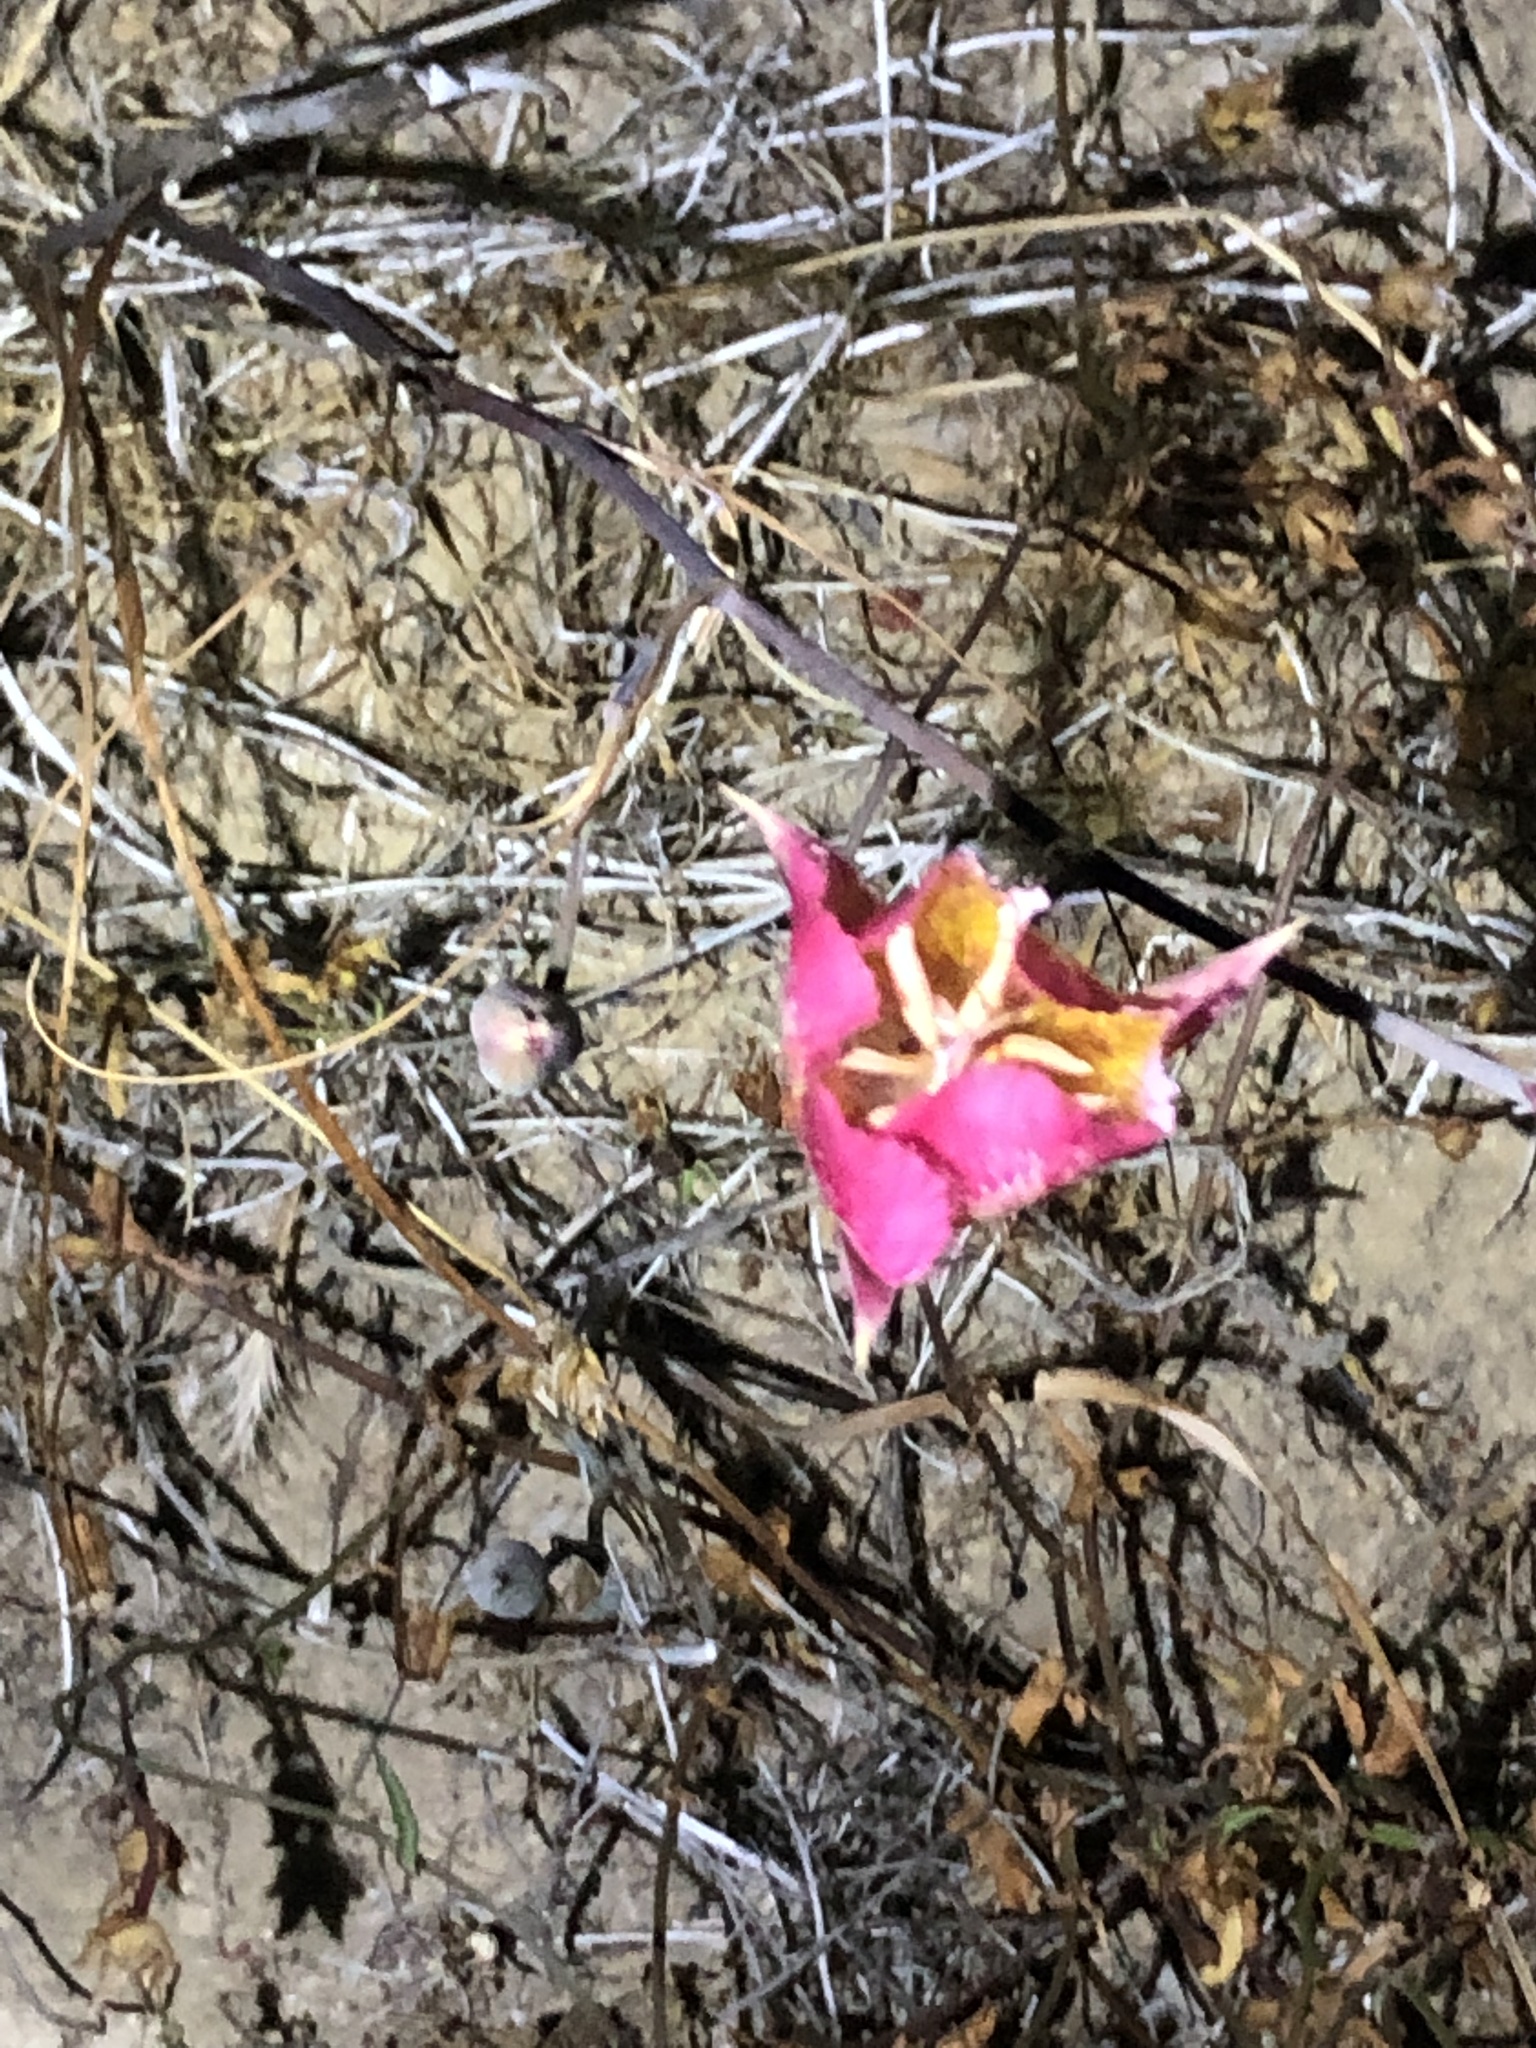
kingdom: Plantae
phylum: Tracheophyta
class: Liliopsida
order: Liliales
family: Liliaceae
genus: Calochortus
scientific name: Calochortus plummerae
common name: Plummer's mariposa-lily
